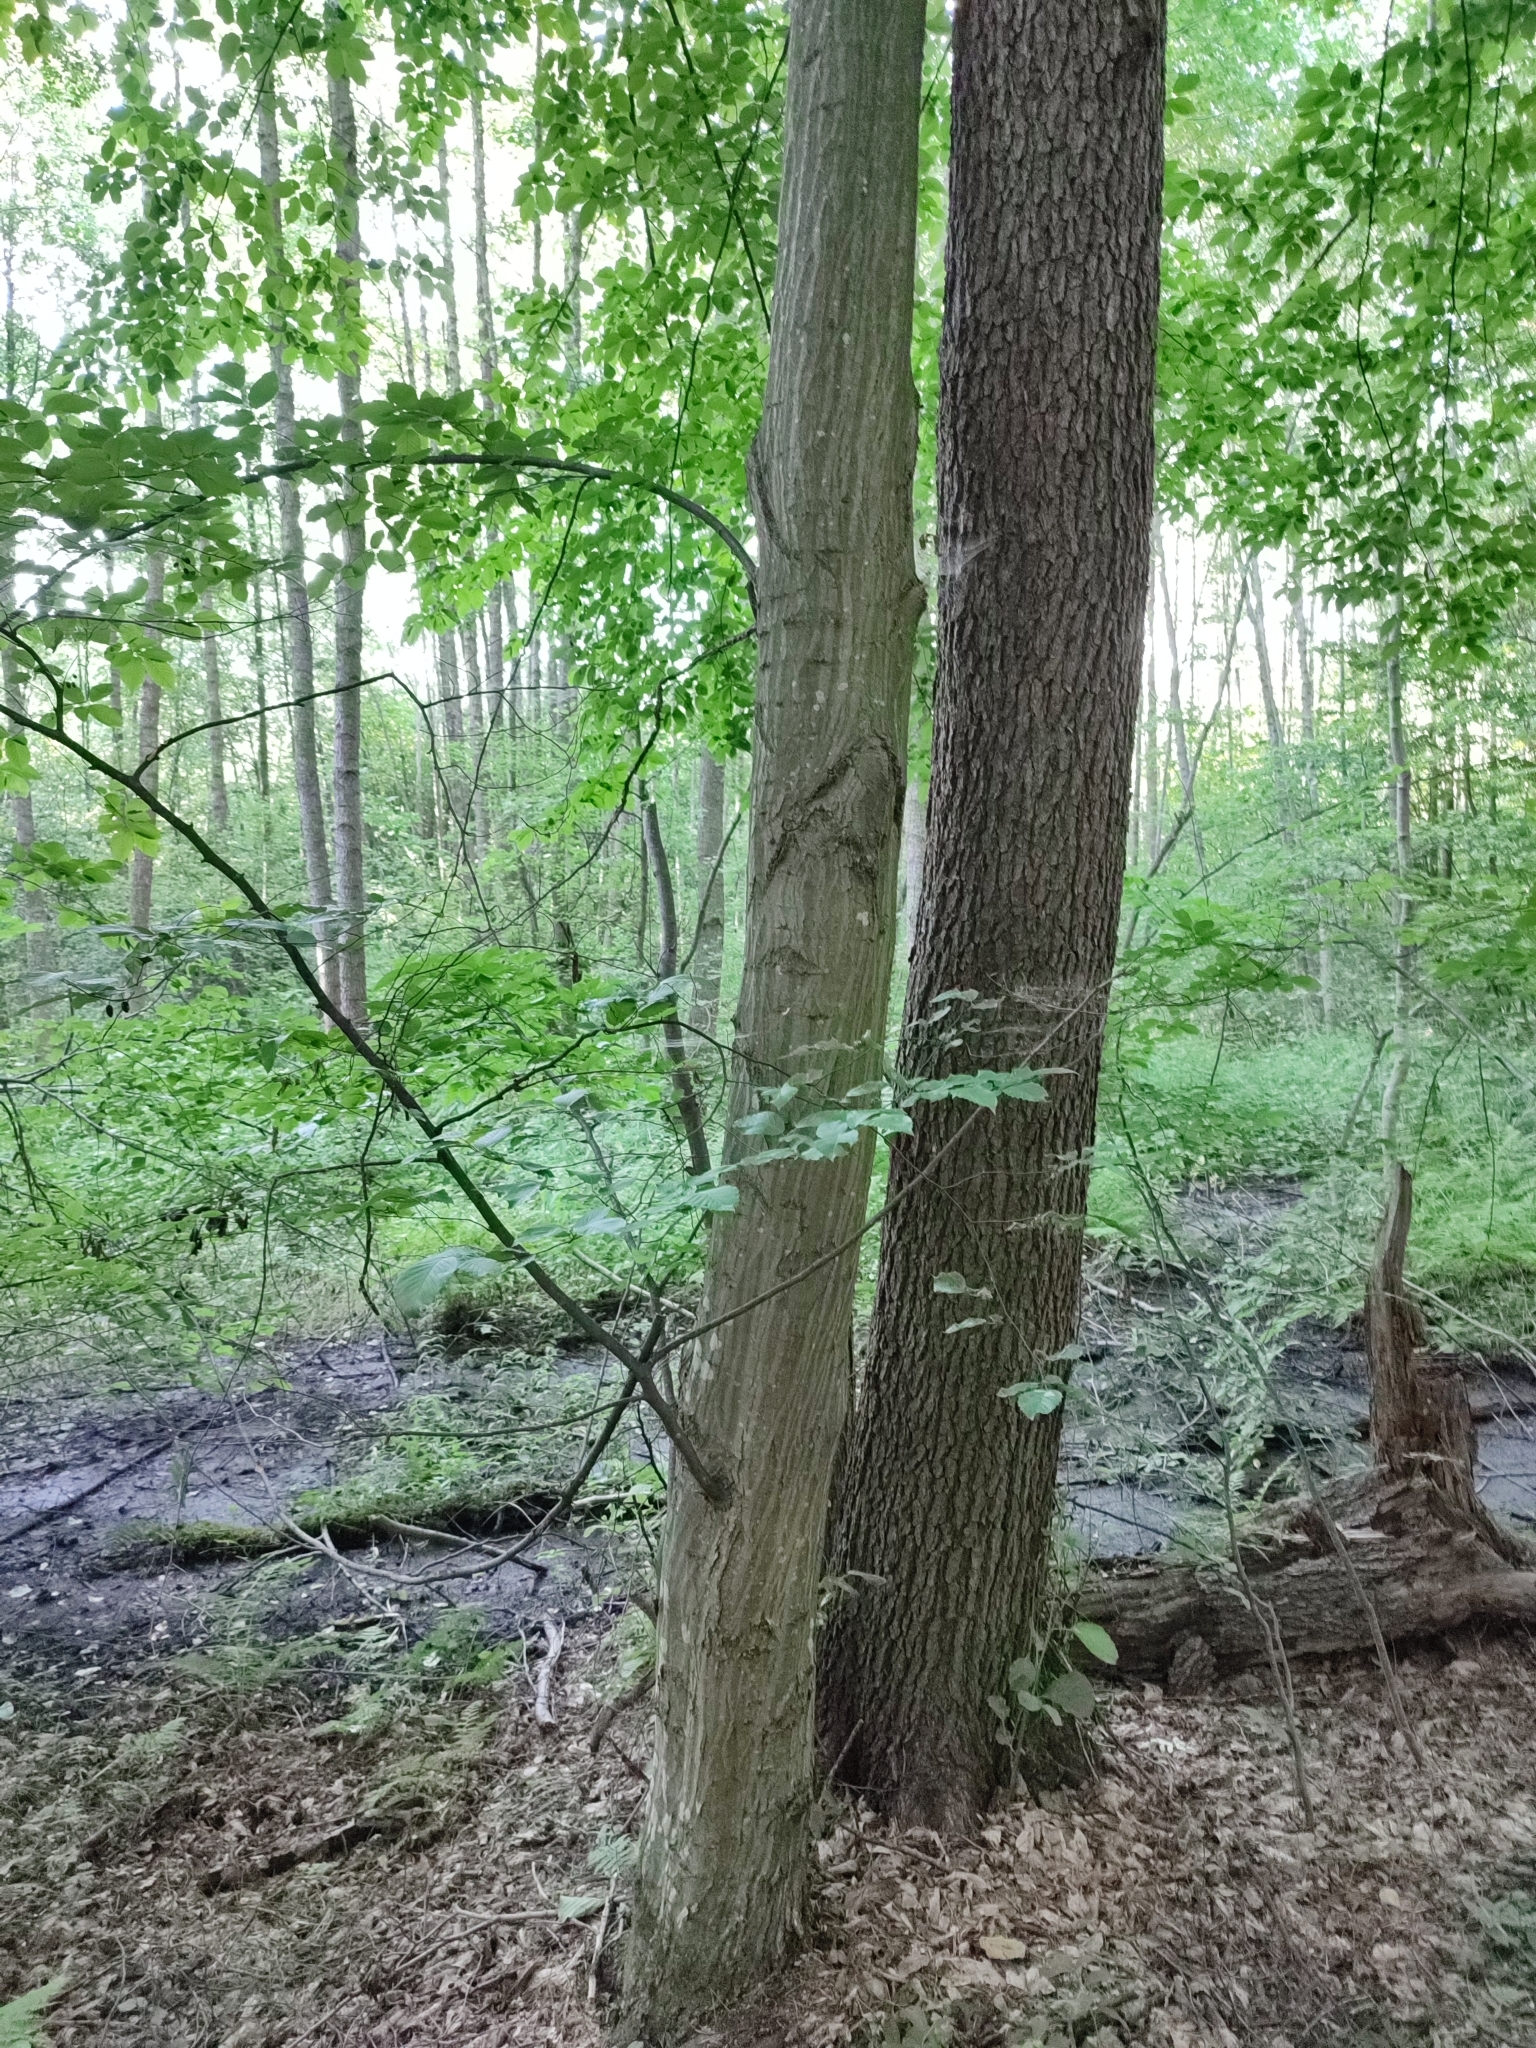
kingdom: Plantae
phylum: Tracheophyta
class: Magnoliopsida
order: Fagales
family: Betulaceae
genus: Carpinus
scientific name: Carpinus betulus
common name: Hornbeam
